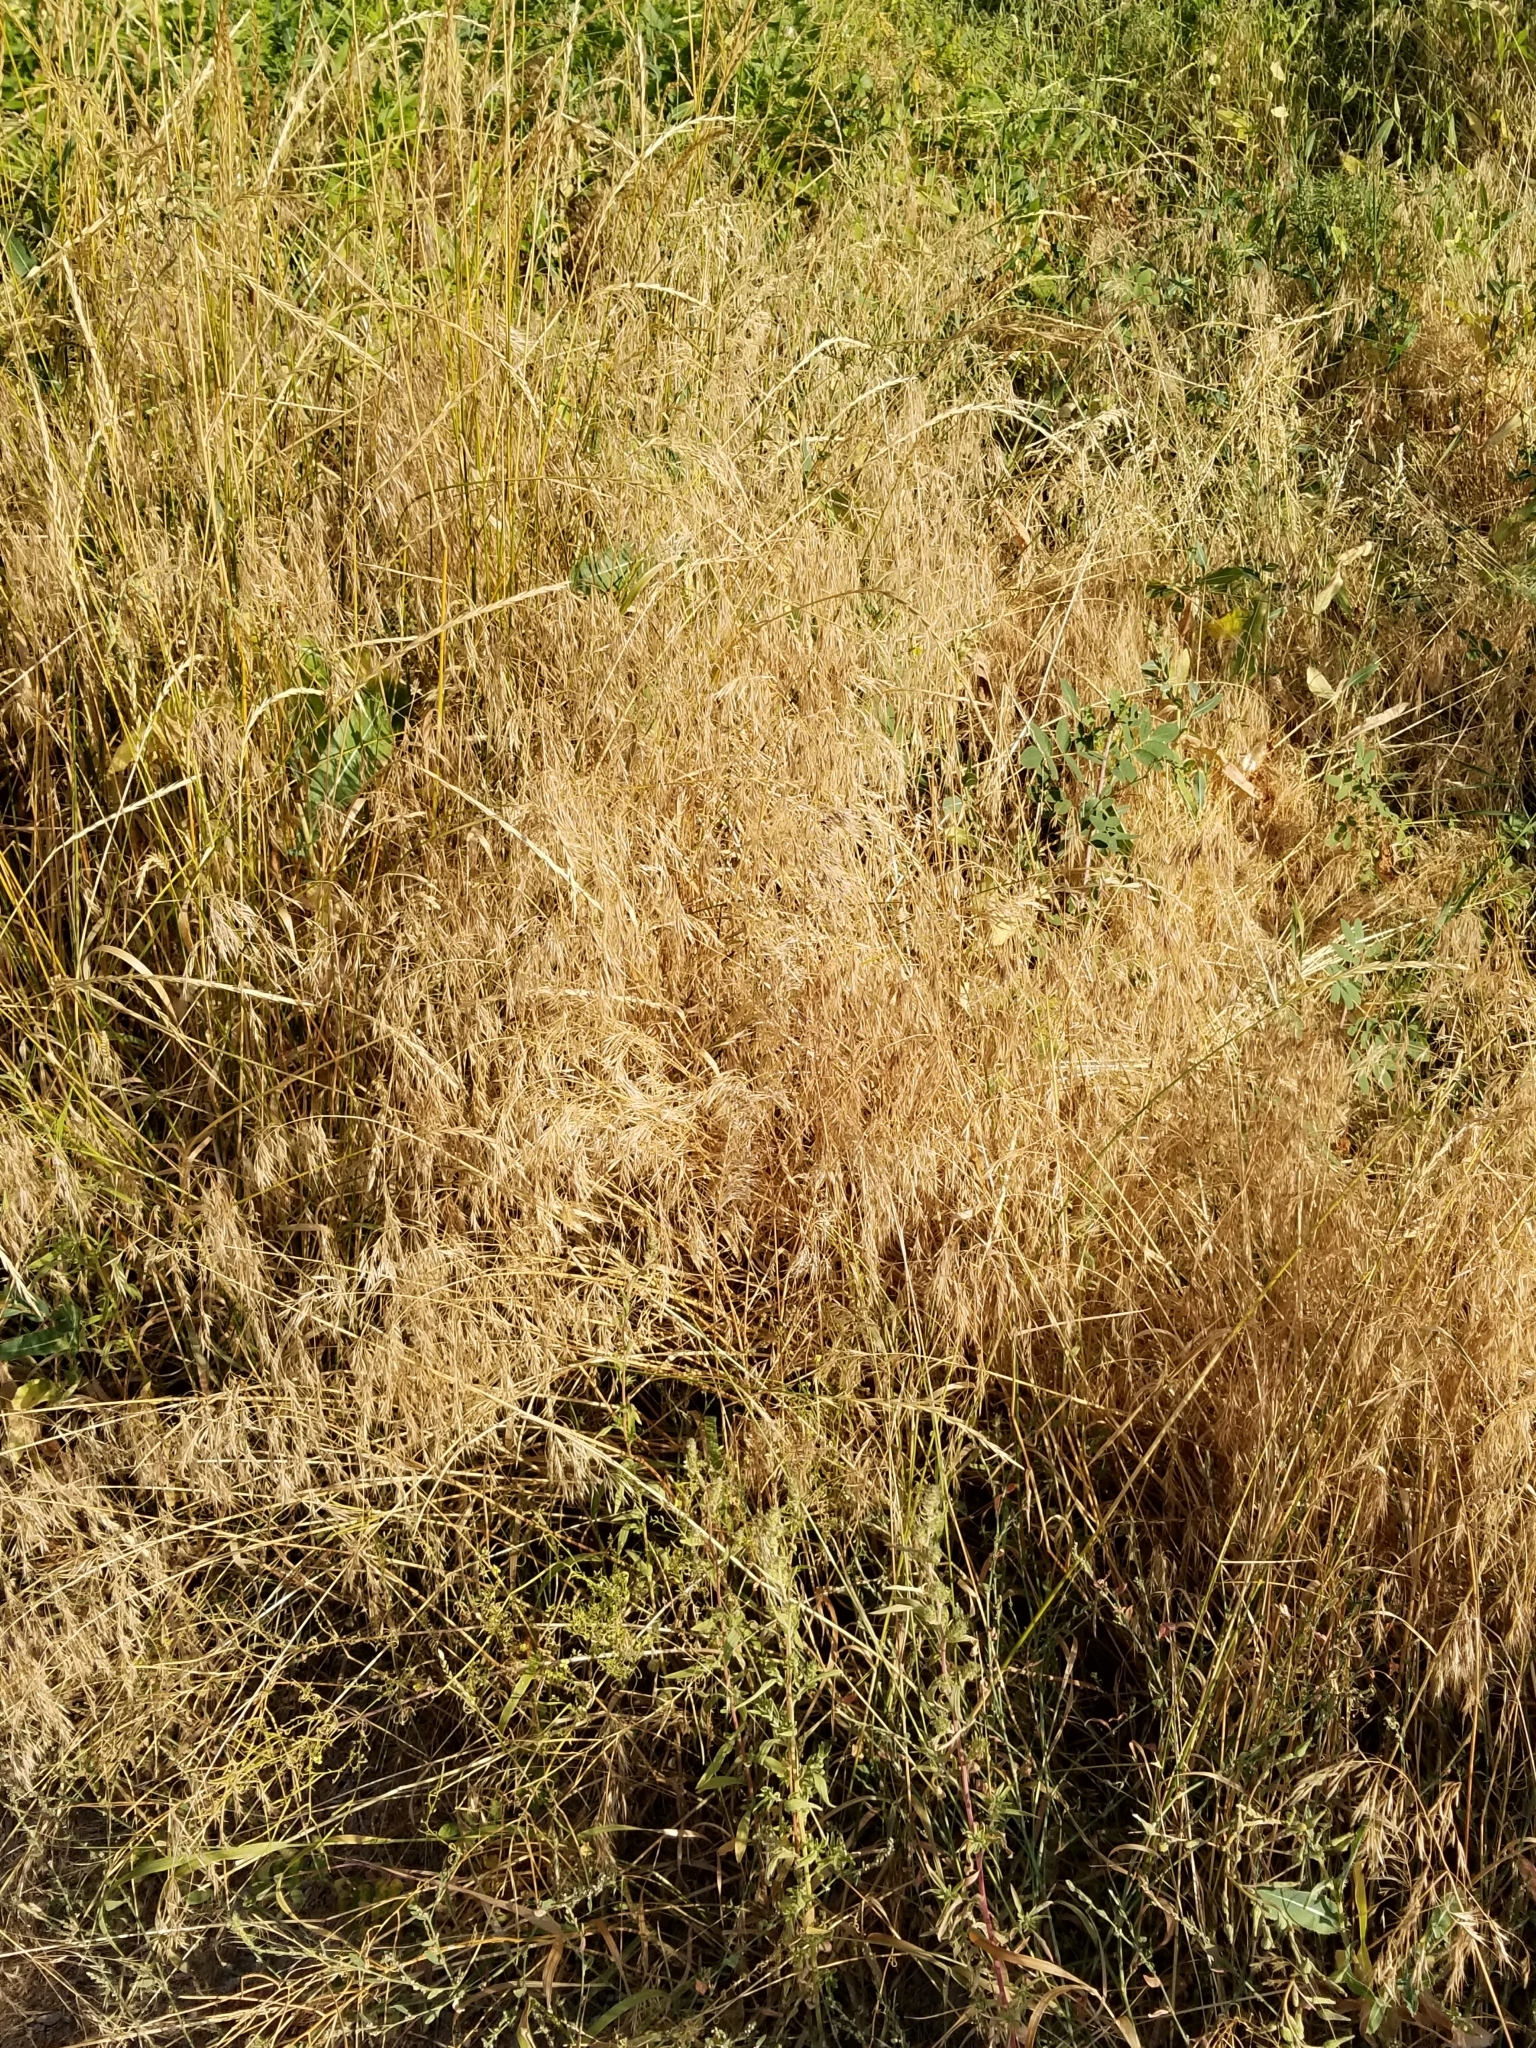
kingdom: Plantae
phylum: Tracheophyta
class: Liliopsida
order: Poales
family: Poaceae
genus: Bromus
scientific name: Bromus tectorum
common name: Cheatgrass
